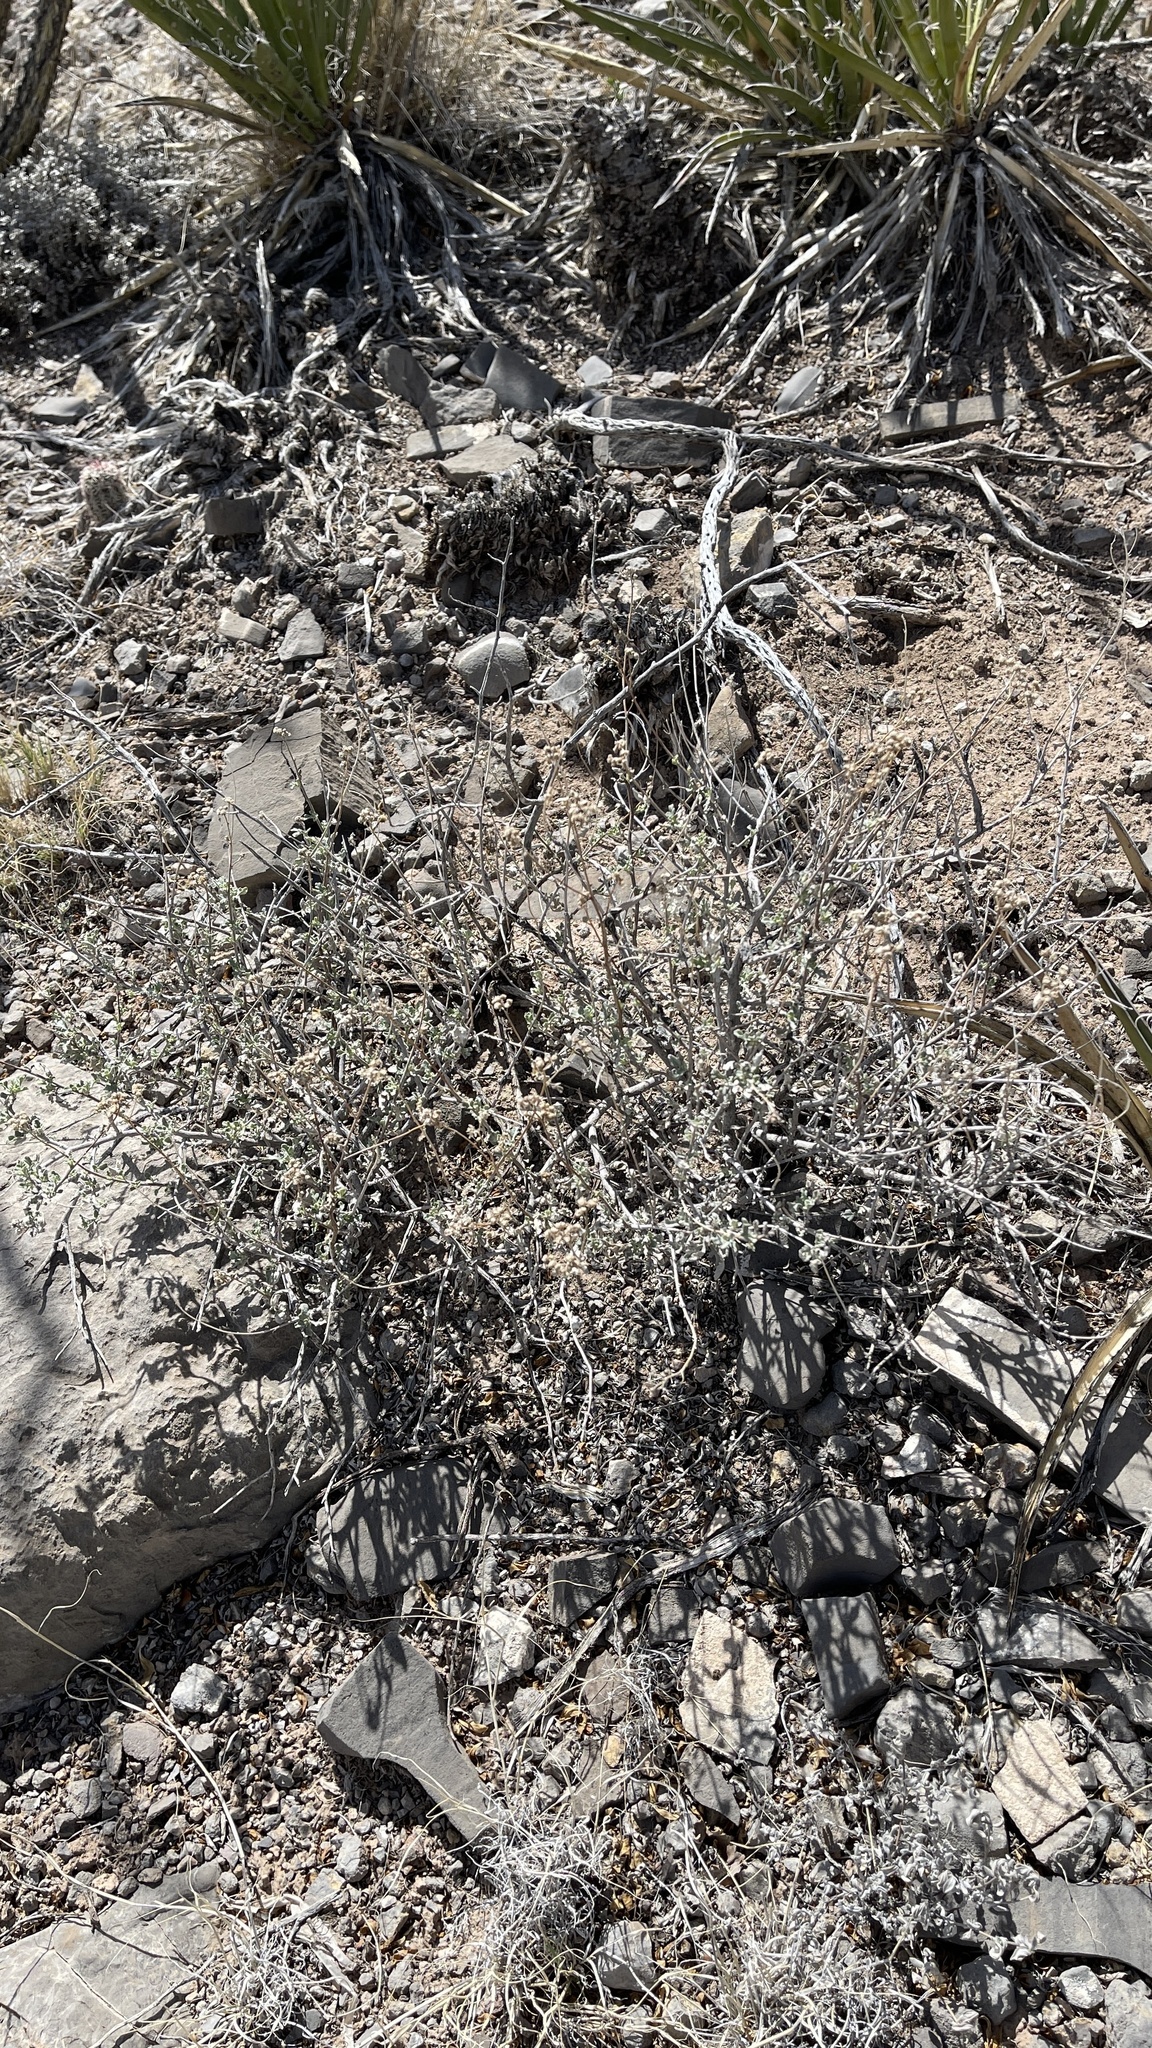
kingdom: Plantae
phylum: Tracheophyta
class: Magnoliopsida
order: Asterales
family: Asteraceae
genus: Parthenium
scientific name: Parthenium incanum
